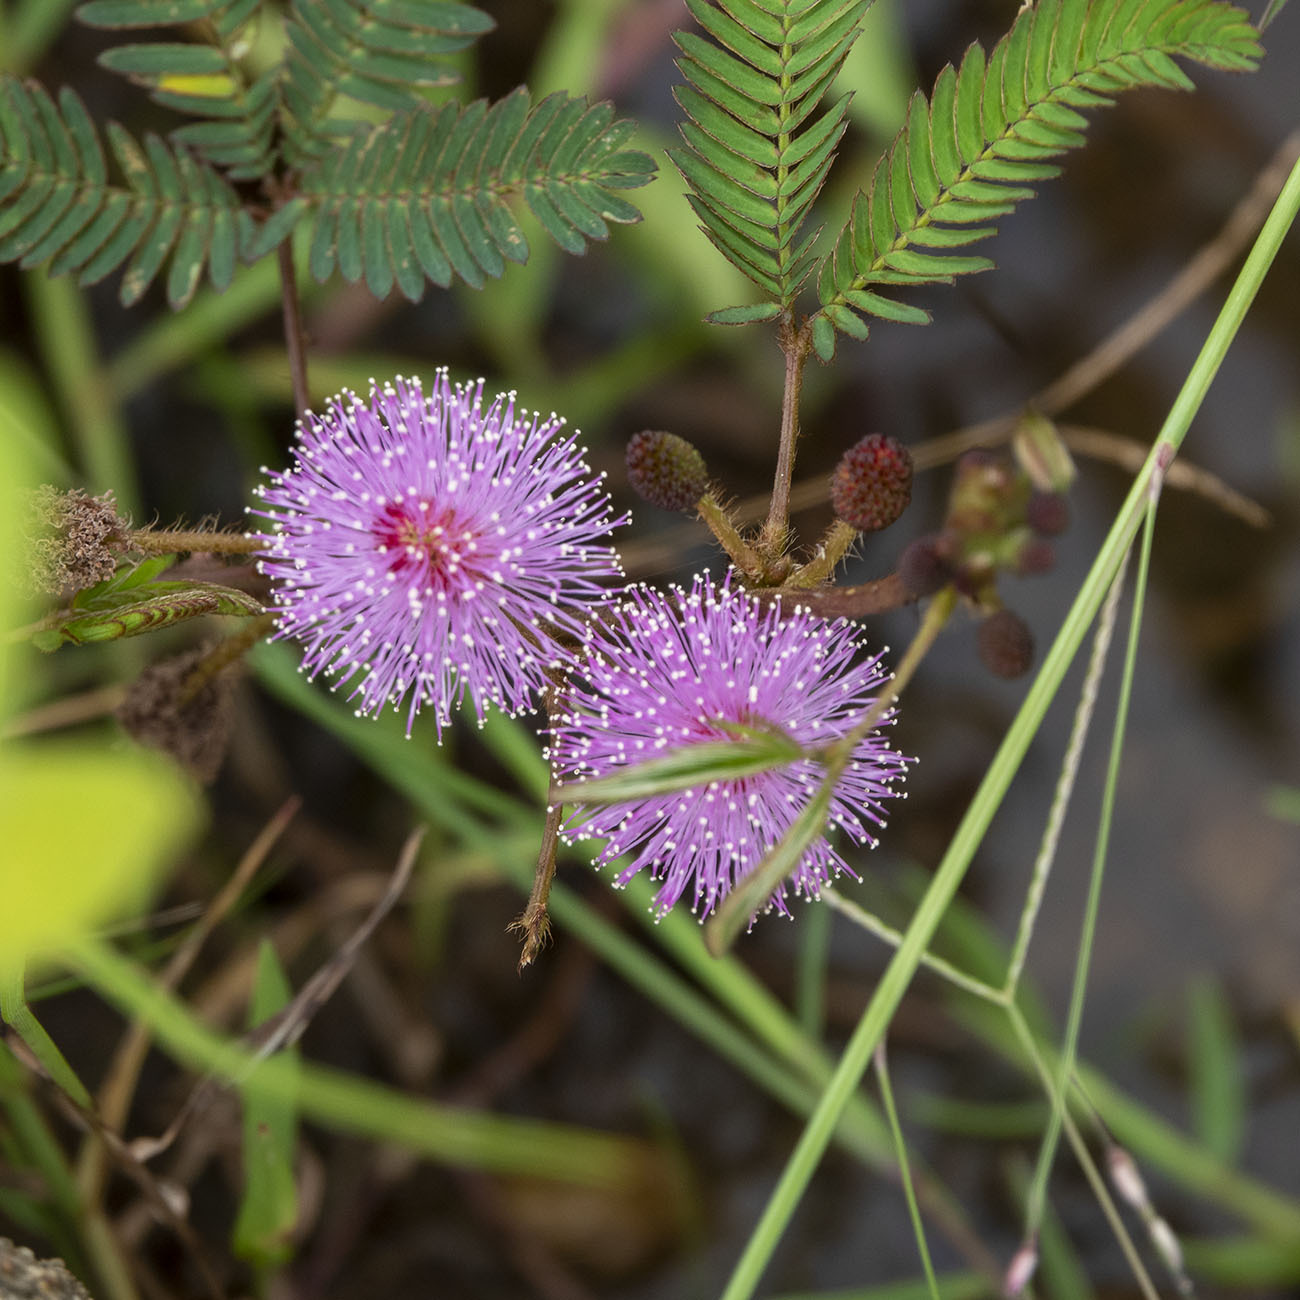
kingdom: Plantae
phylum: Tracheophyta
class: Magnoliopsida
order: Fabales
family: Fabaceae
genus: Mimosa
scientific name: Mimosa pudica
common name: Sensitive plant
